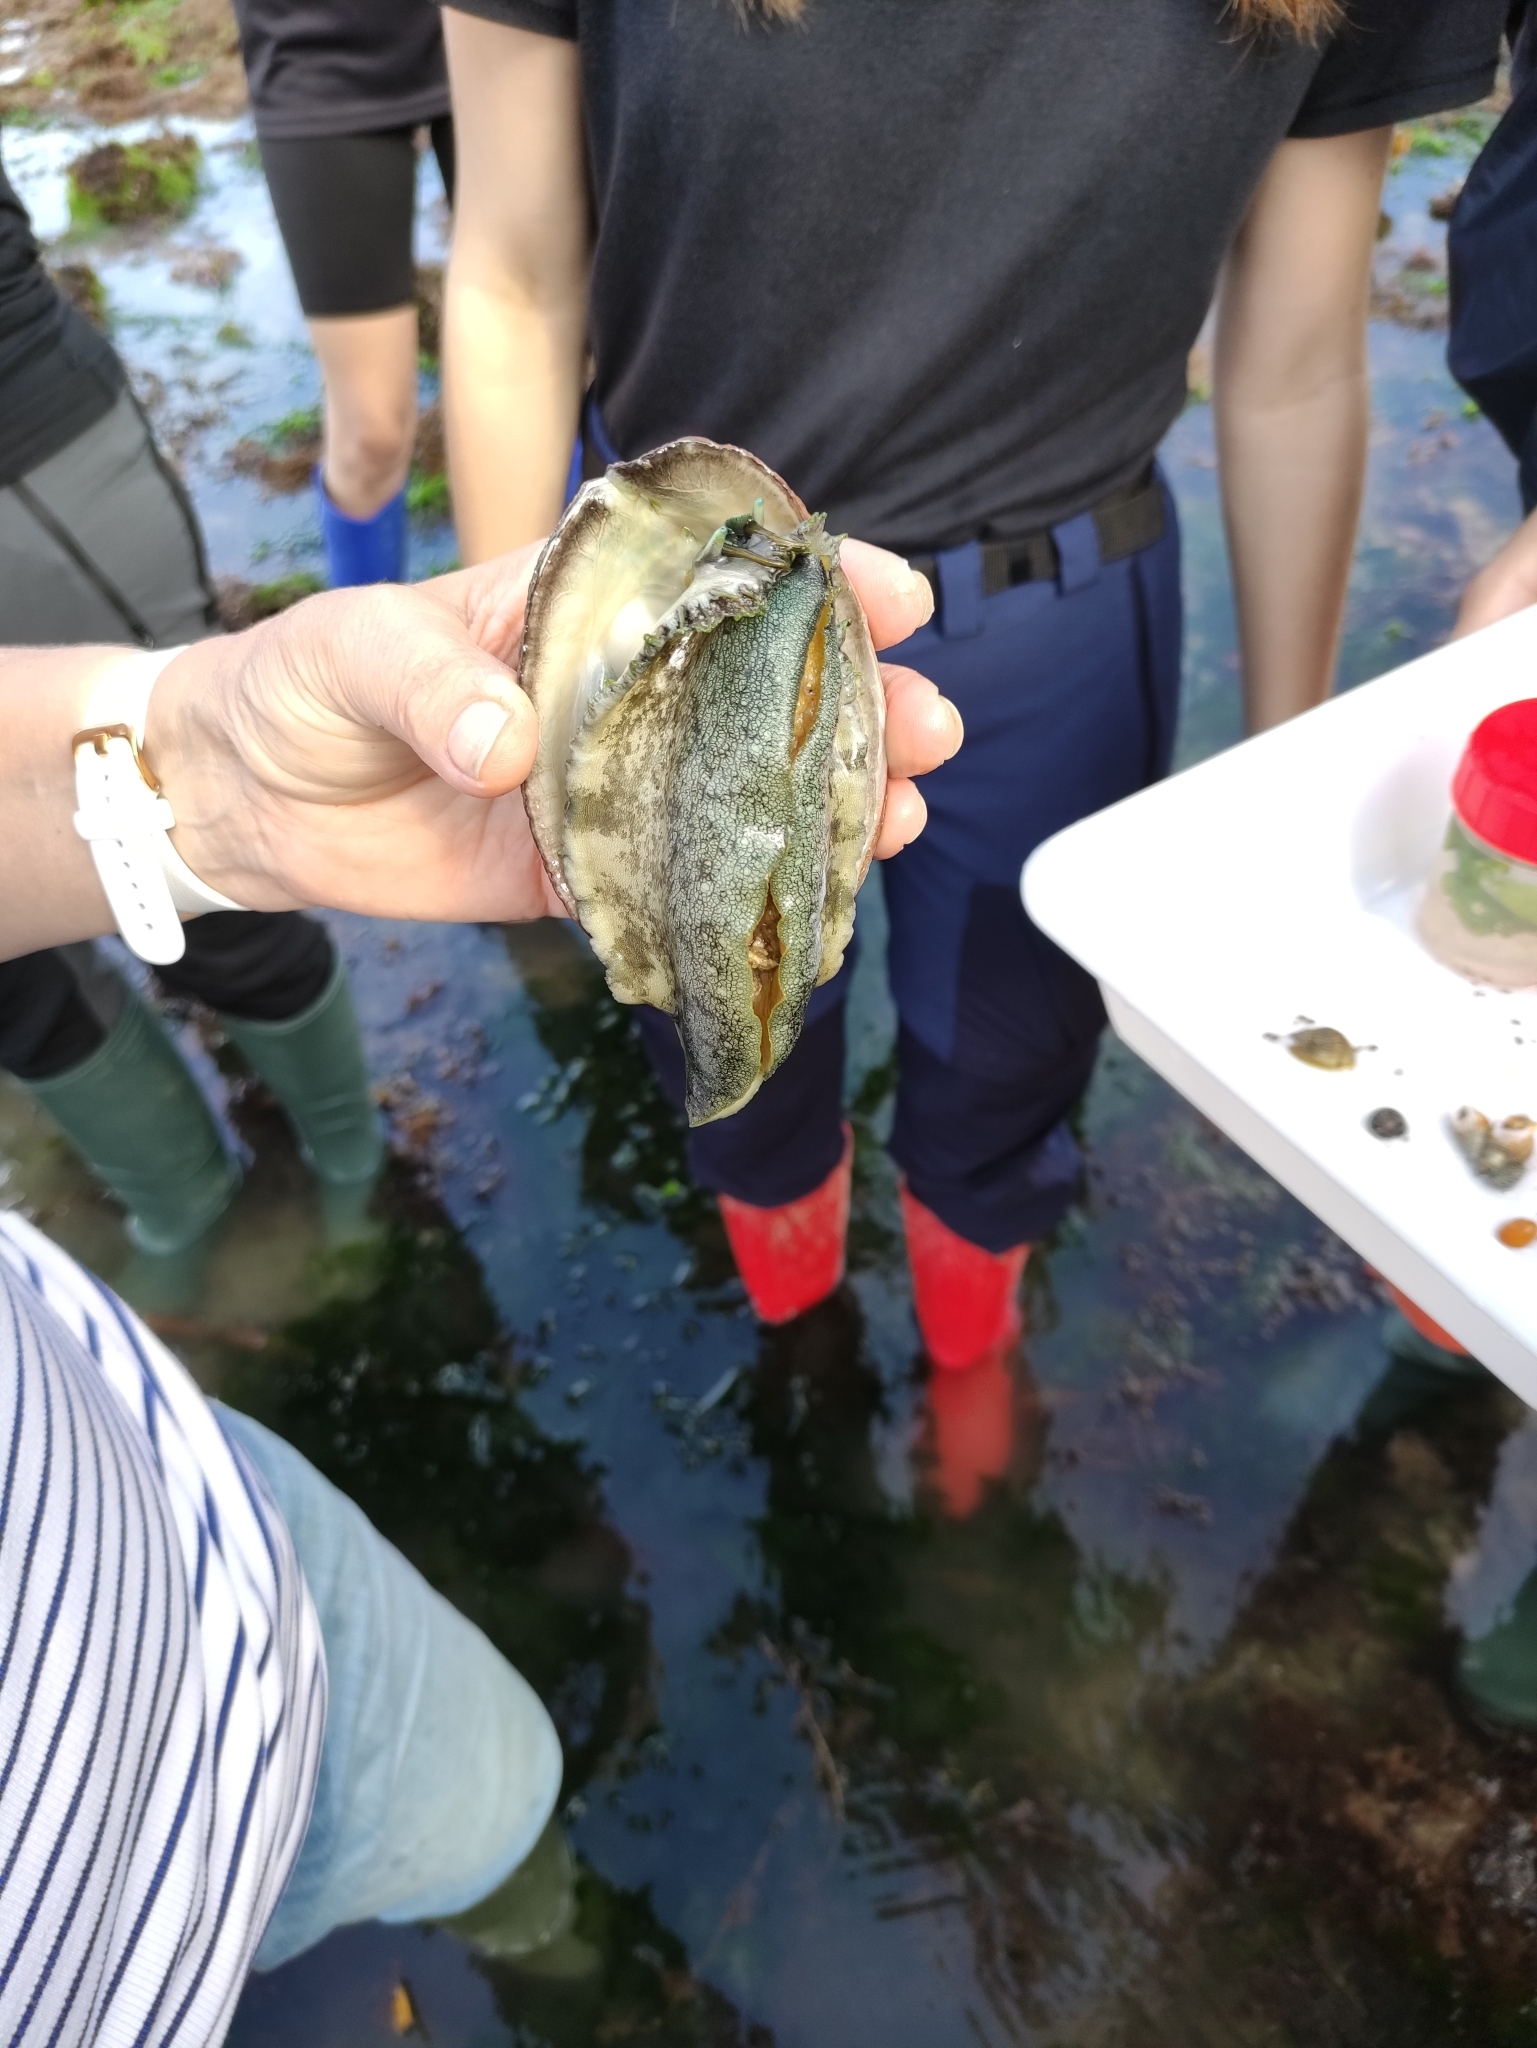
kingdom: Animalia
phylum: Mollusca
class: Gastropoda
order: Lepetellida
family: Haliotidae
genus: Haliotis
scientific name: Haliotis tuberculata
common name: Green ormer
